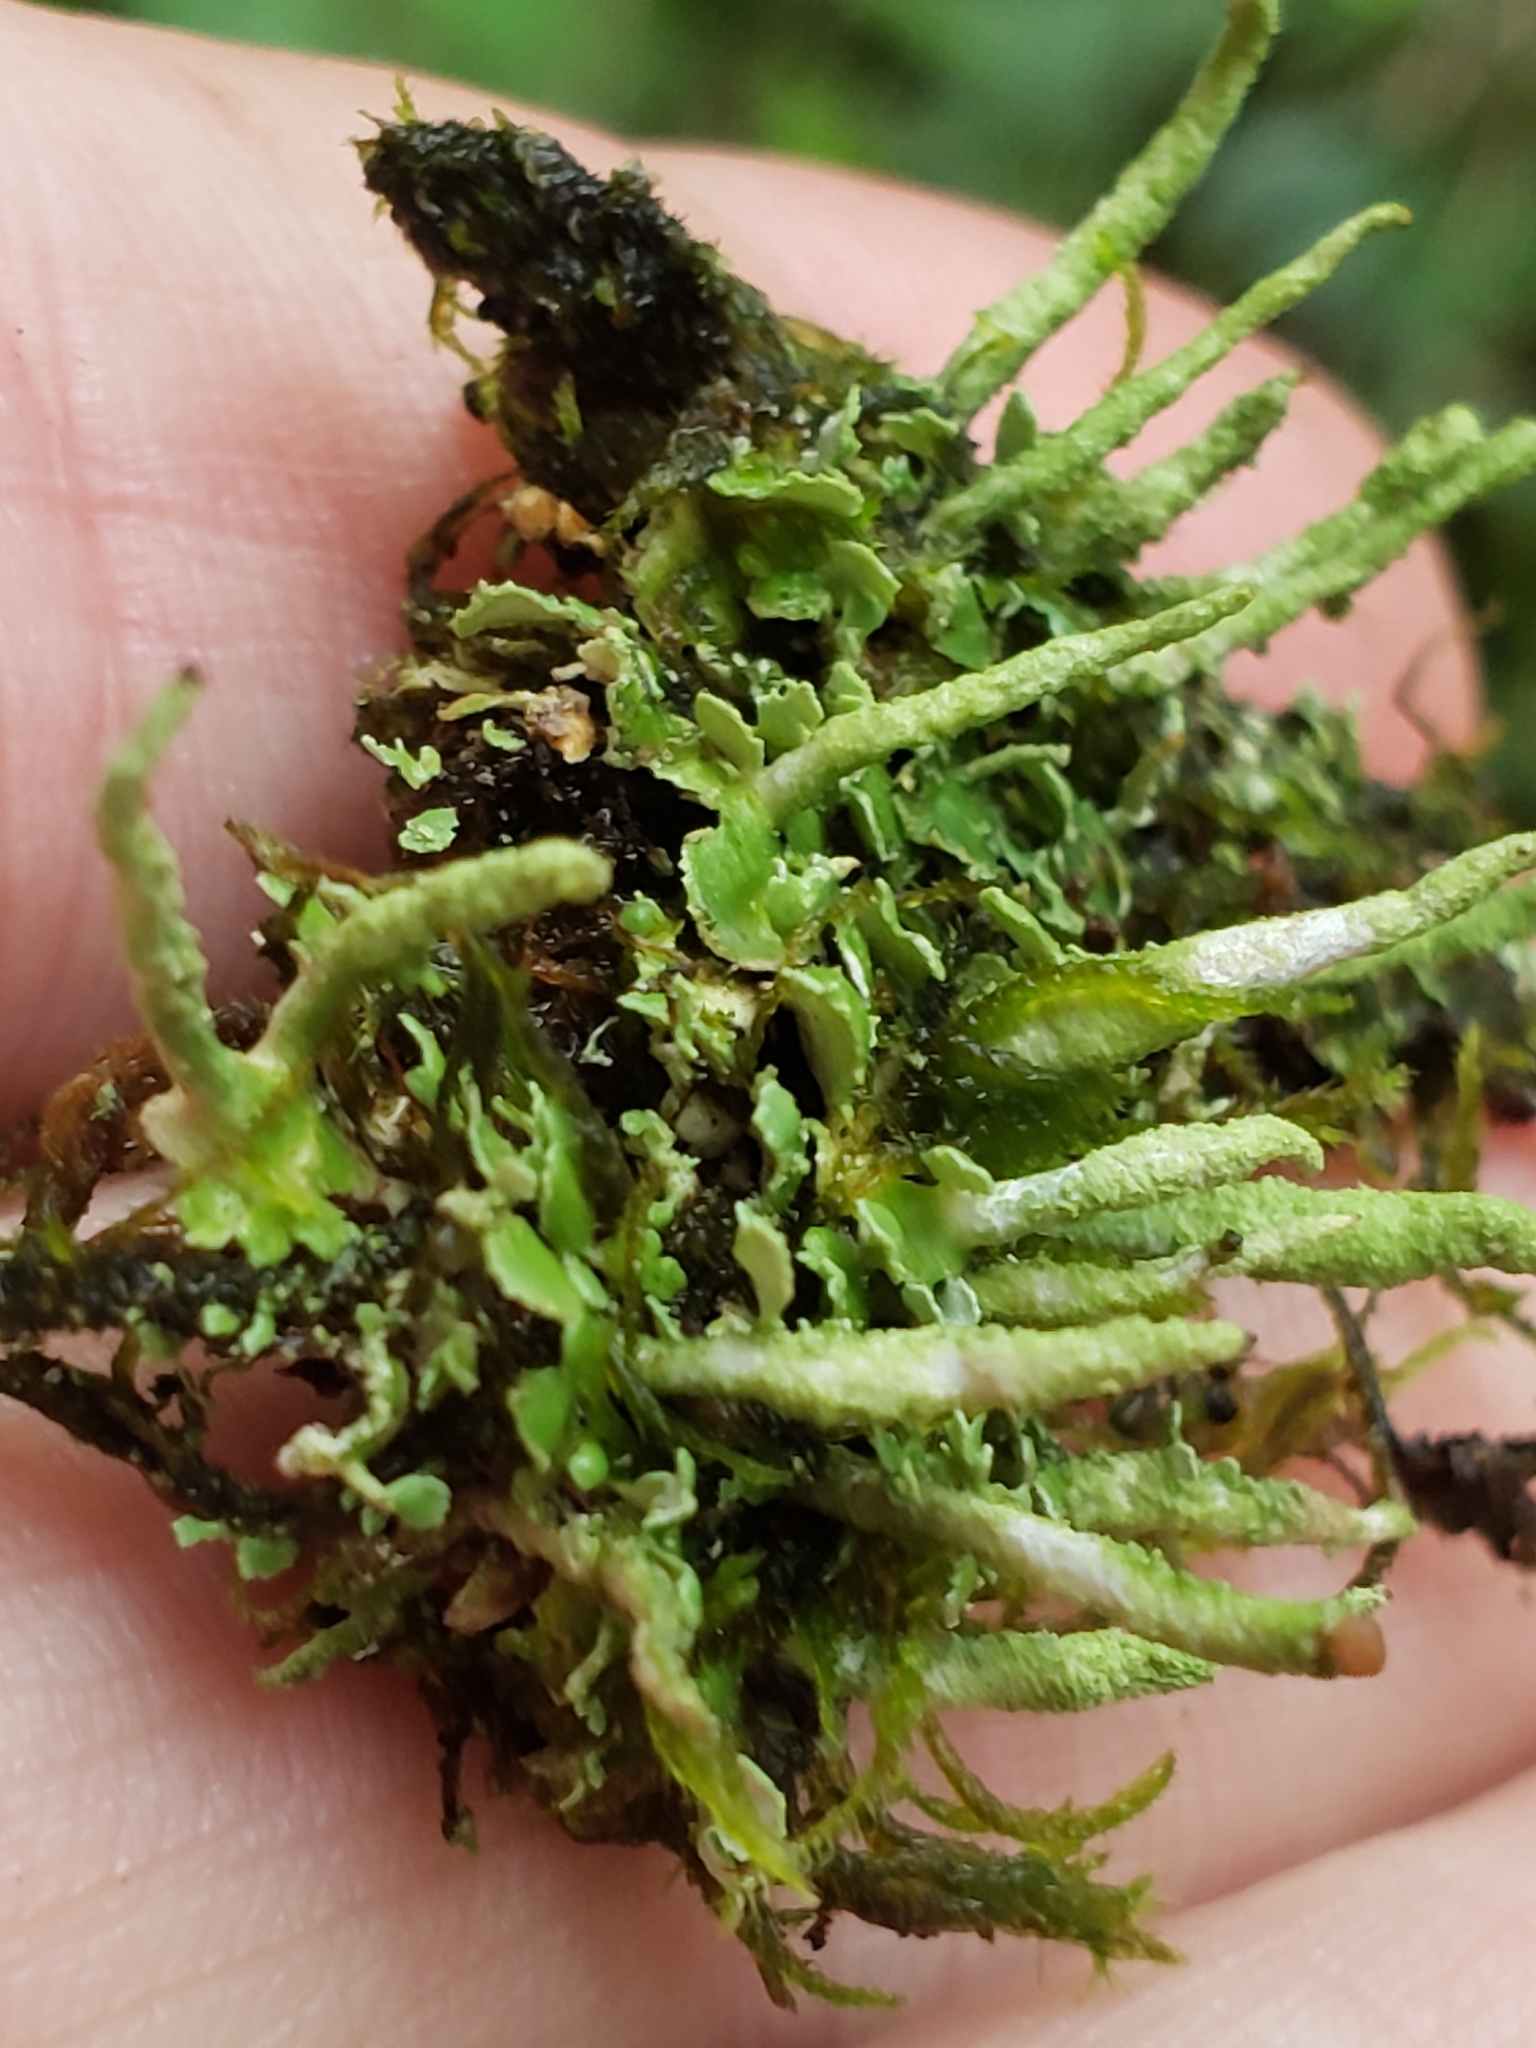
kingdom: Fungi
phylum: Ascomycota
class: Lecanoromycetes
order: Lecanorales
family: Cladoniaceae
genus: Cladonia
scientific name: Cladonia coniocraea
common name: Common powderhorn
